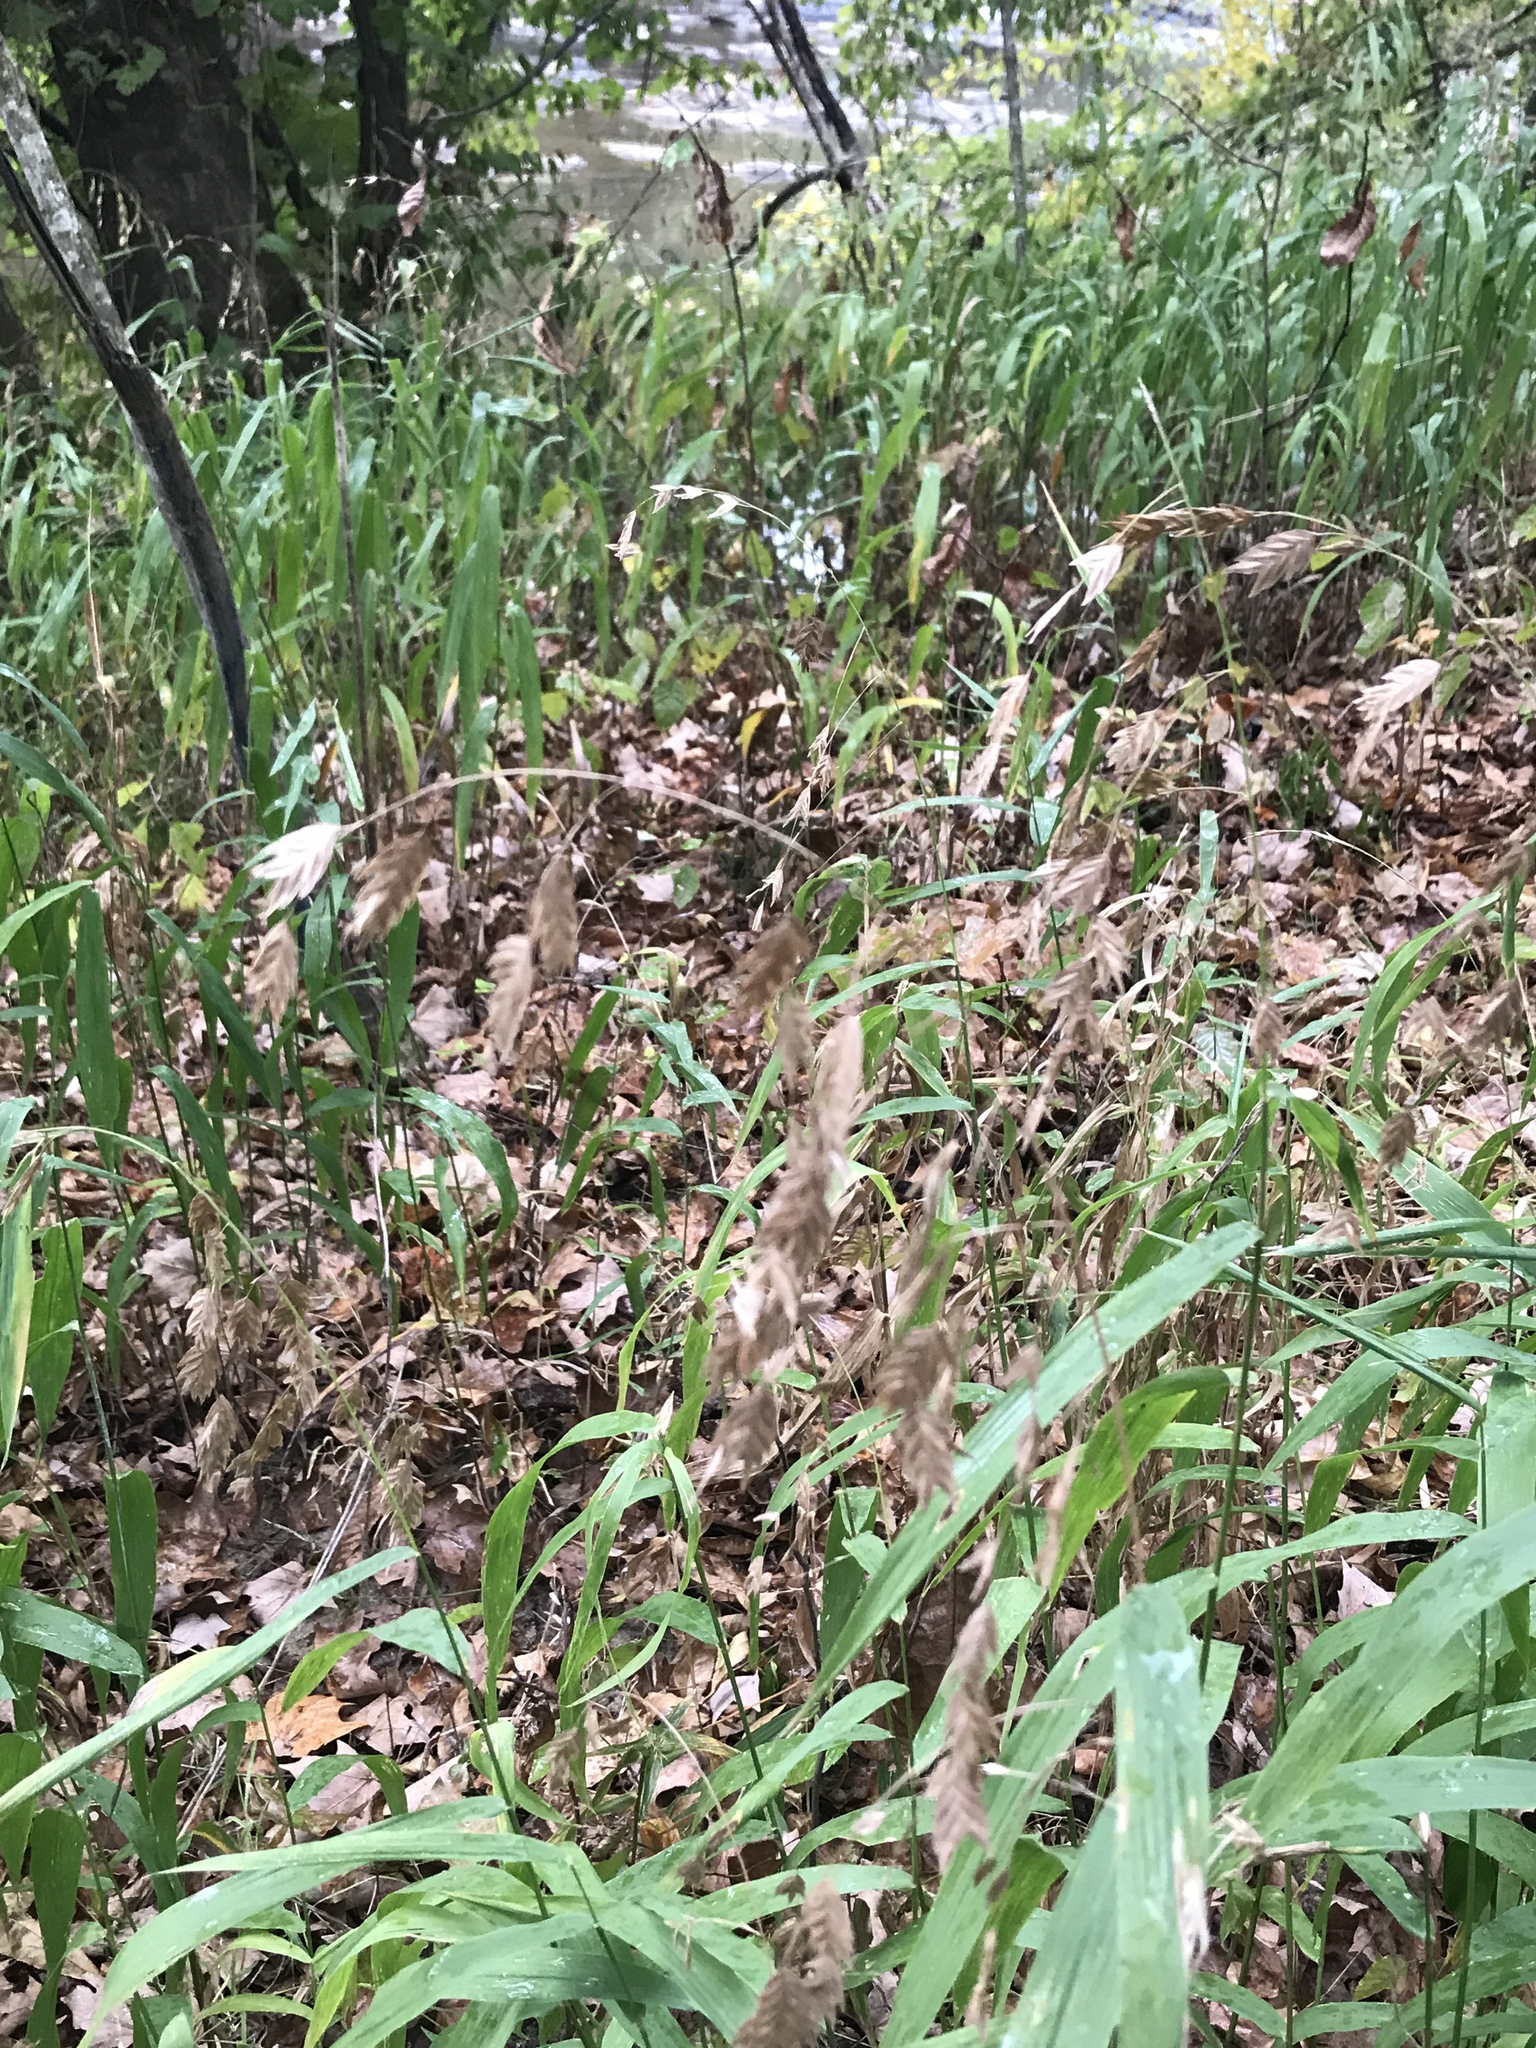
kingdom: Plantae
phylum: Tracheophyta
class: Liliopsida
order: Poales
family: Poaceae
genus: Chasmanthium
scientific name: Chasmanthium latifolium
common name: Broad-leaved chasmanthium
